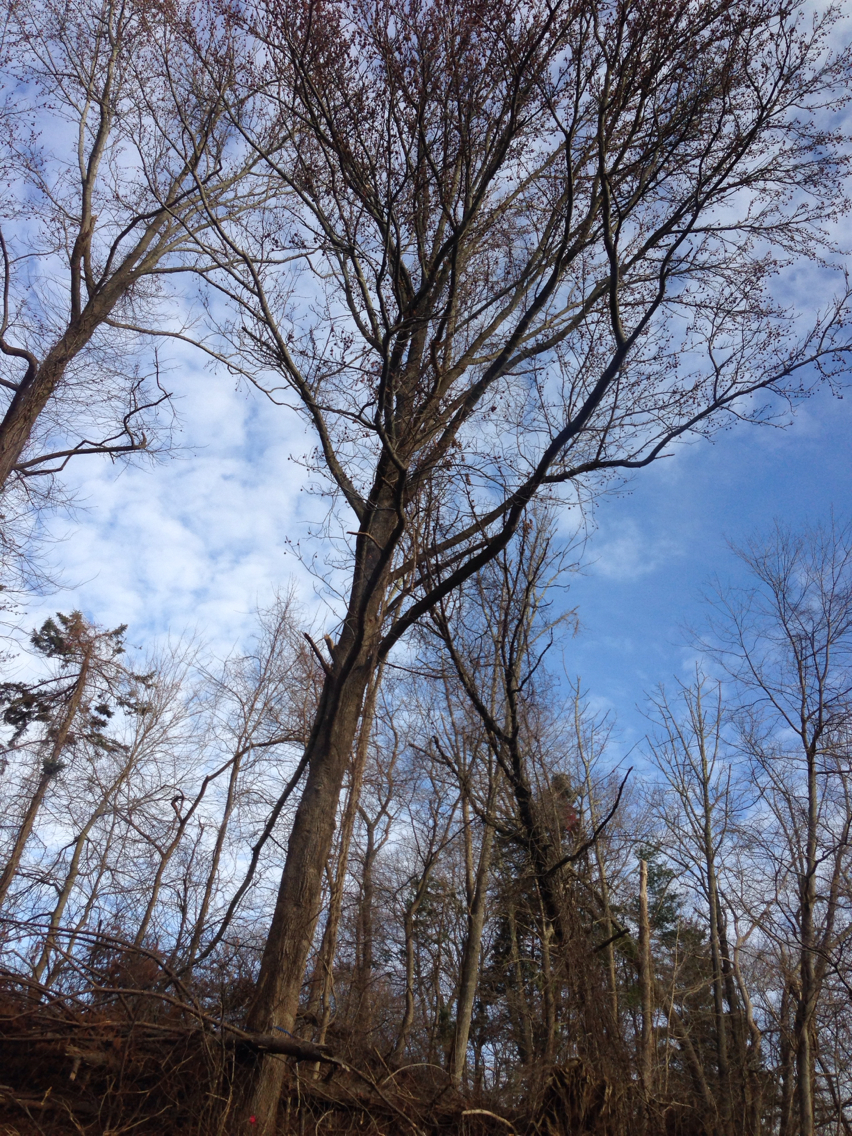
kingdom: Plantae
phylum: Tracheophyta
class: Magnoliopsida
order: Saxifragales
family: Altingiaceae
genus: Liquidambar
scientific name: Liquidambar styraciflua
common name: Sweet gum
